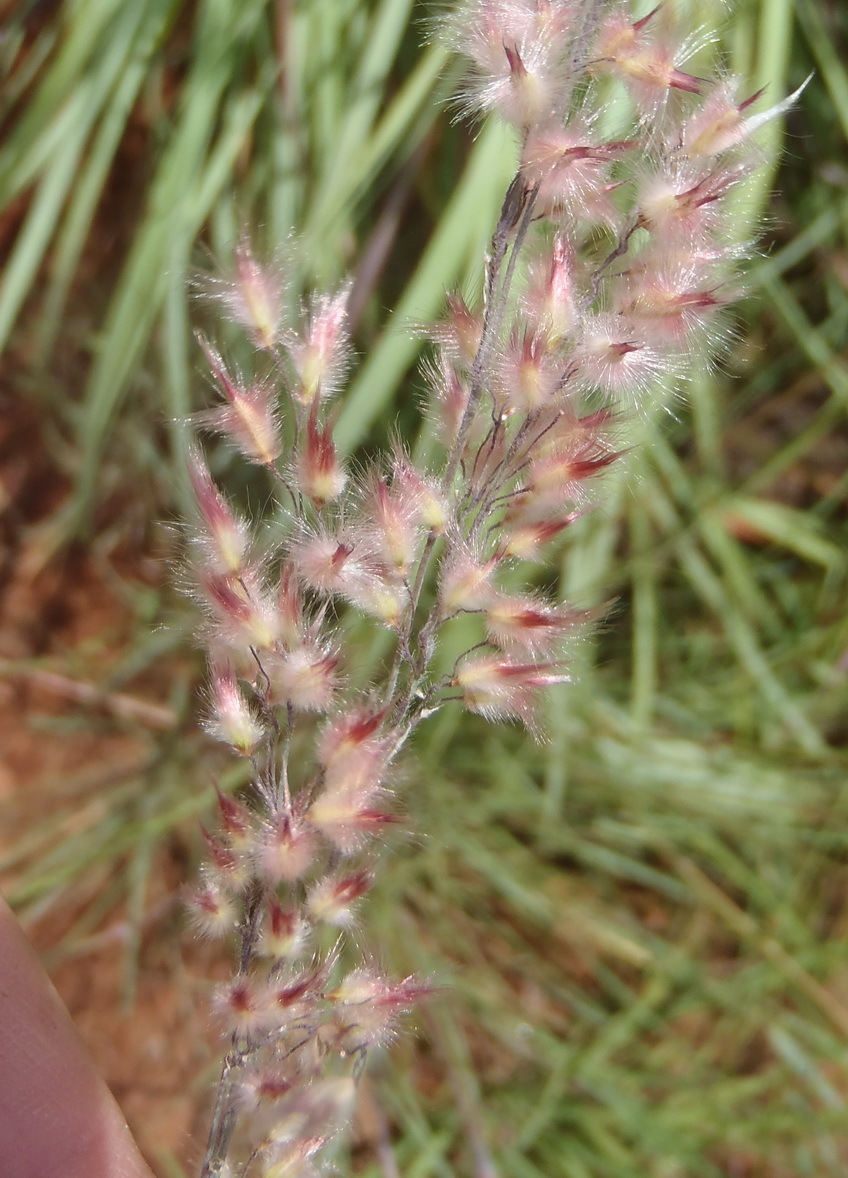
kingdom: Plantae
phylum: Tracheophyta
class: Liliopsida
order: Poales
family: Poaceae
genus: Melinis
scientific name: Melinis repens
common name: Rose natal grass
